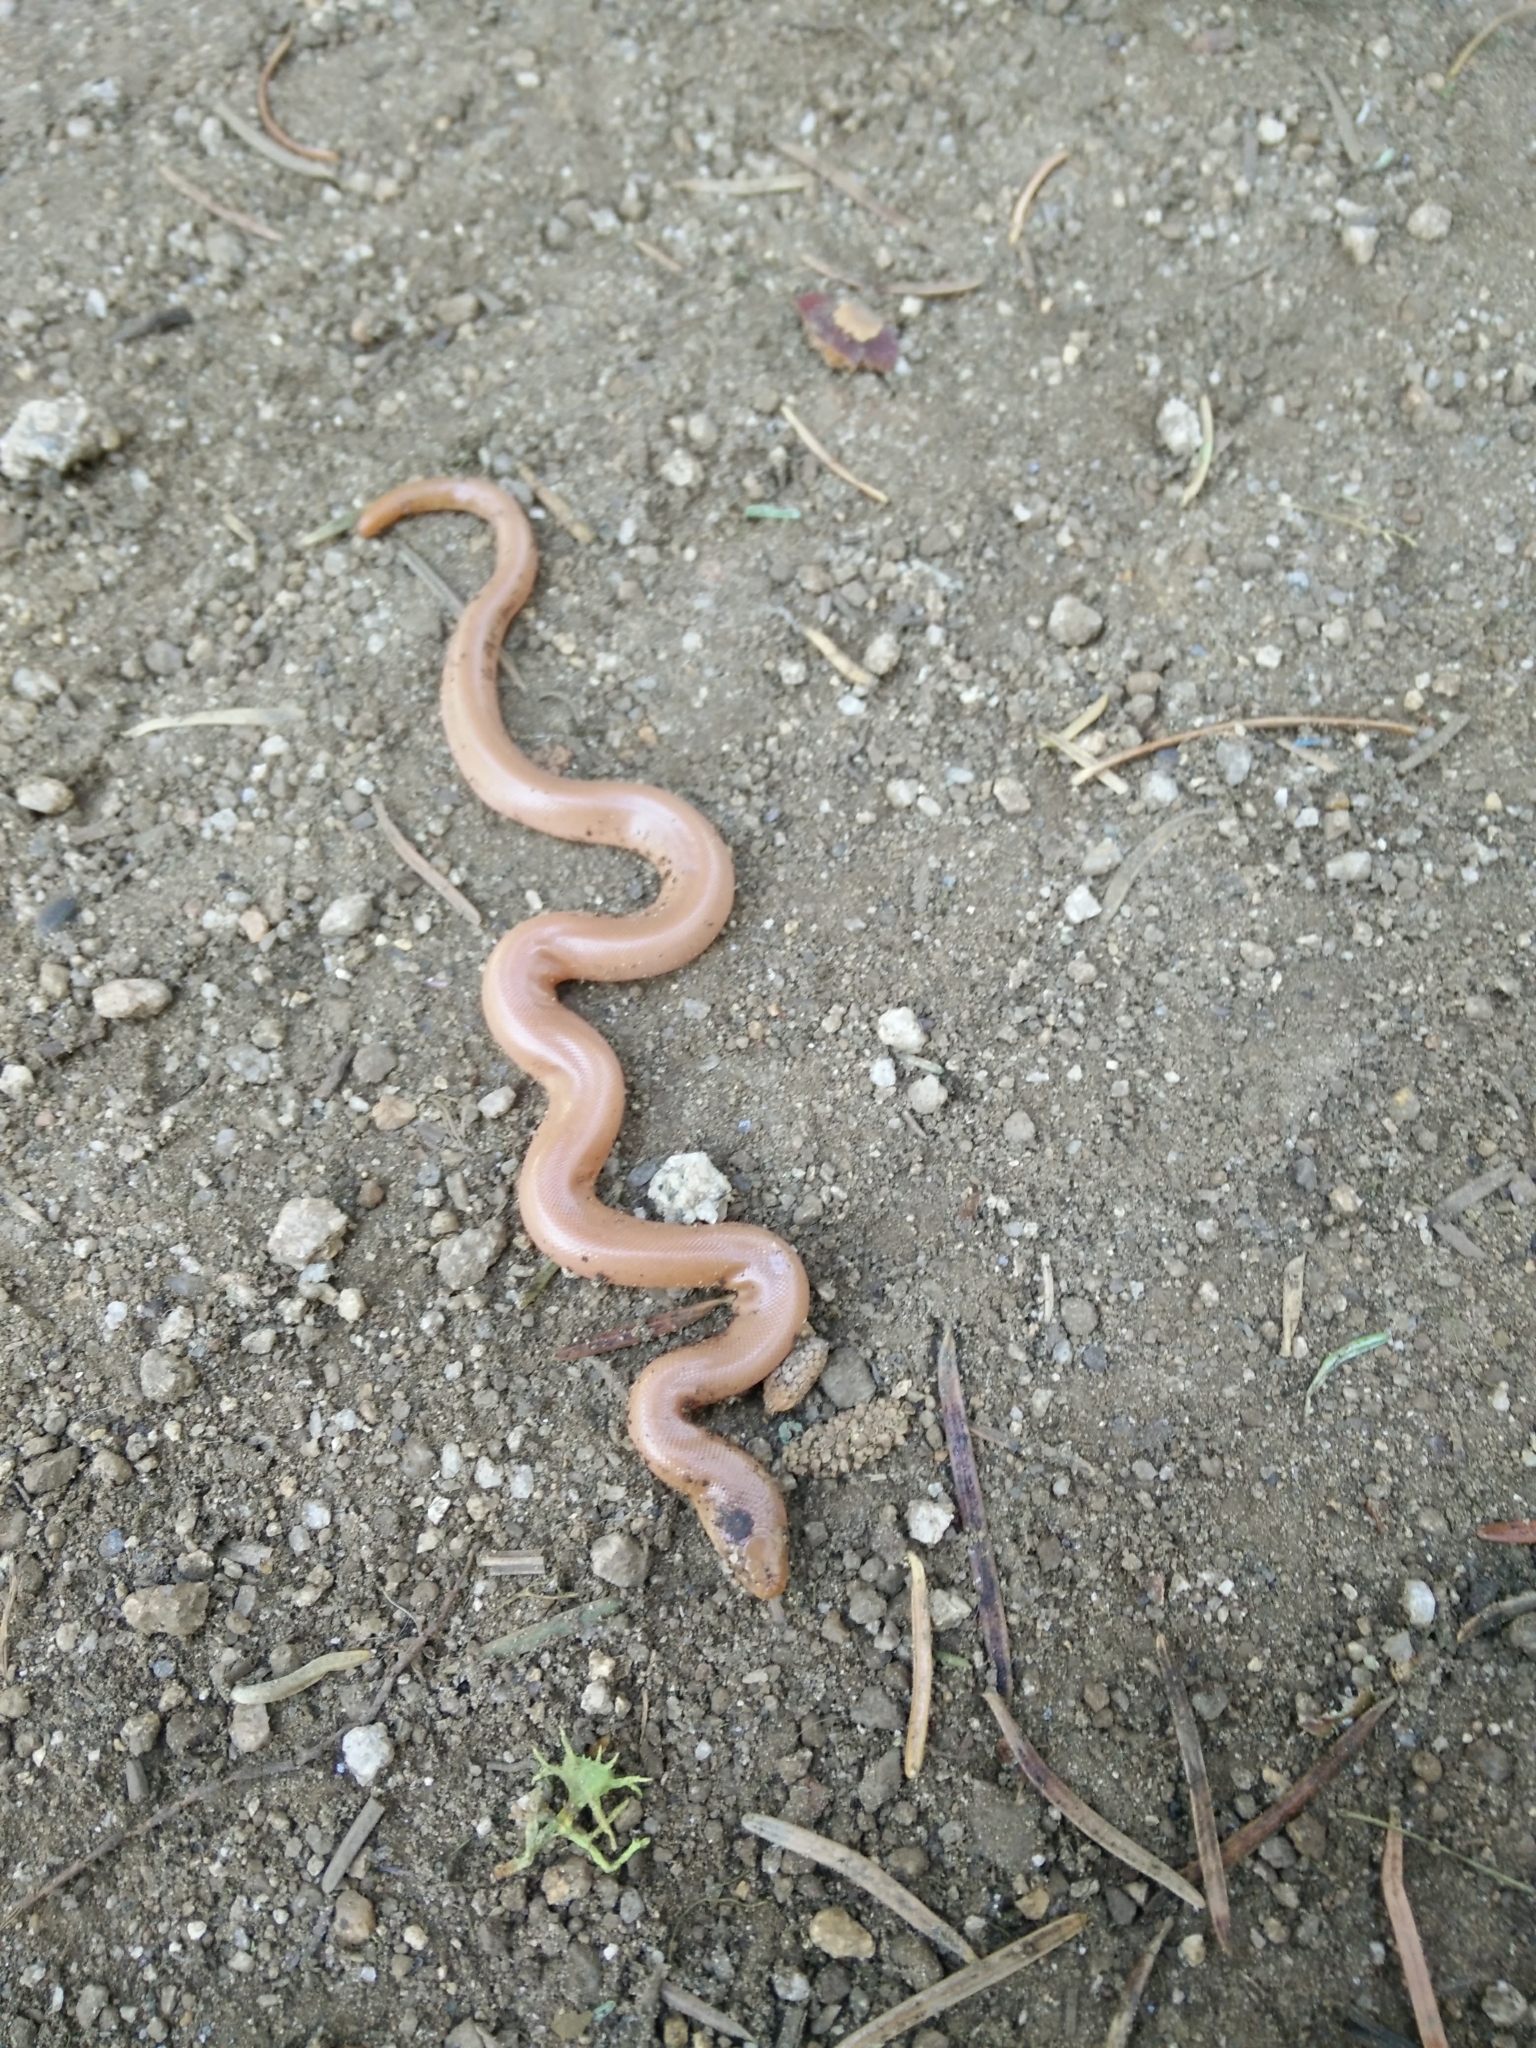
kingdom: Animalia
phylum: Chordata
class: Squamata
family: Boidae
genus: Charina
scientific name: Charina bottae
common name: Northern rubber boa
